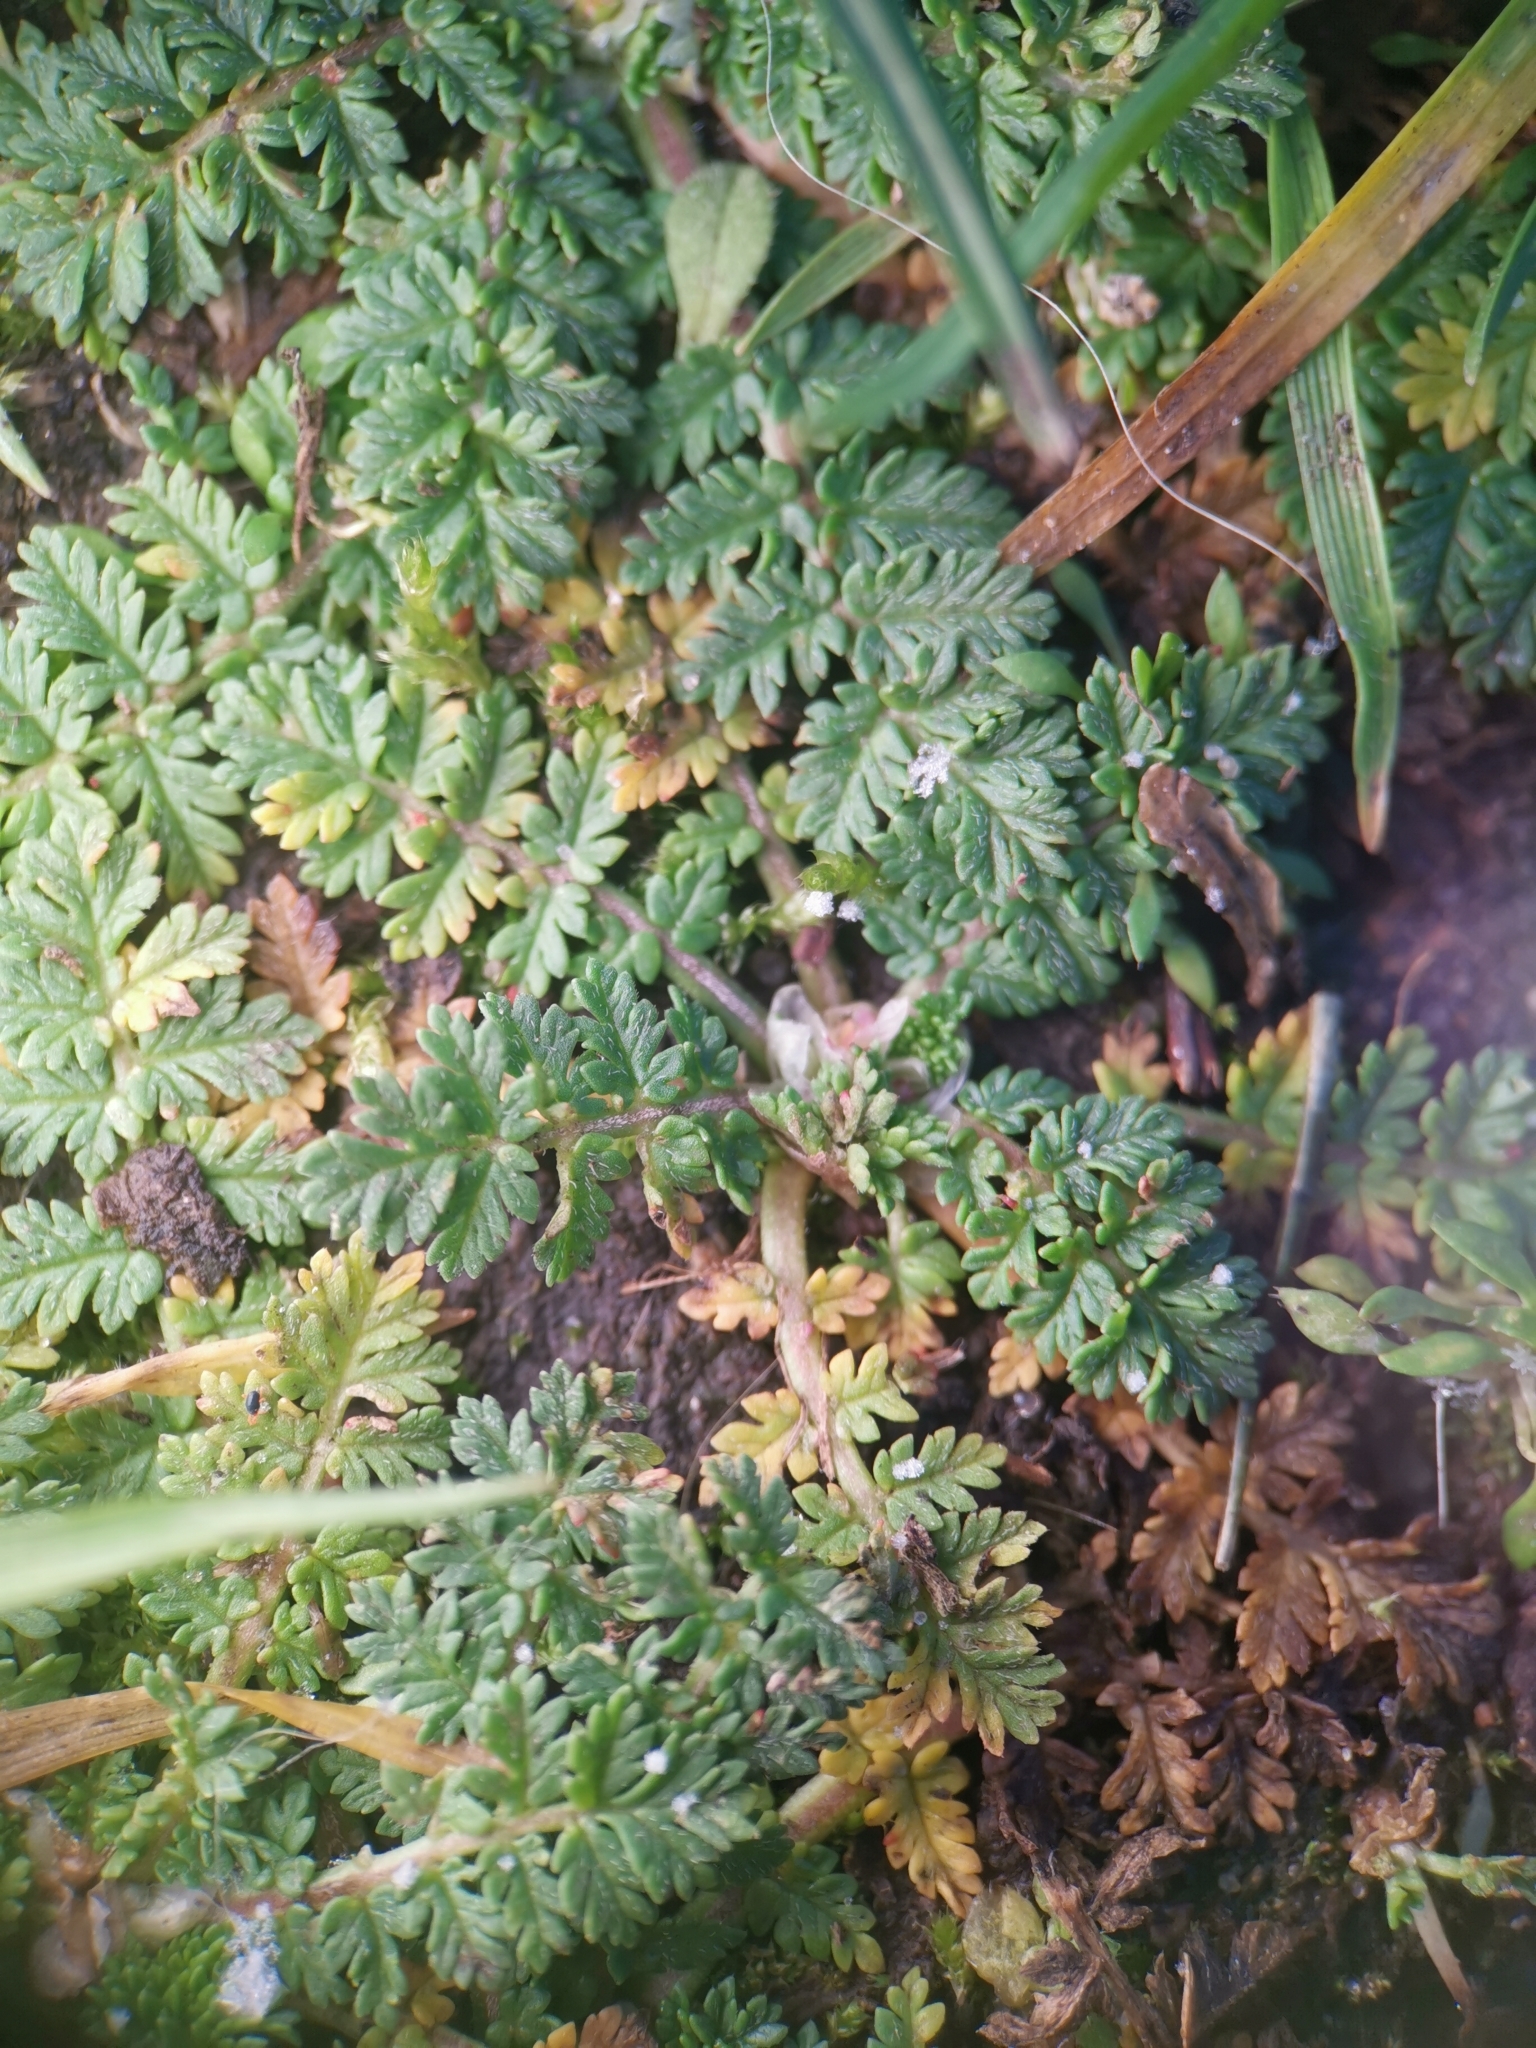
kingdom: Plantae
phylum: Tracheophyta
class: Magnoliopsida
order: Geraniales
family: Geraniaceae
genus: Erodium
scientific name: Erodium cicutarium
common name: Common stork's-bill
